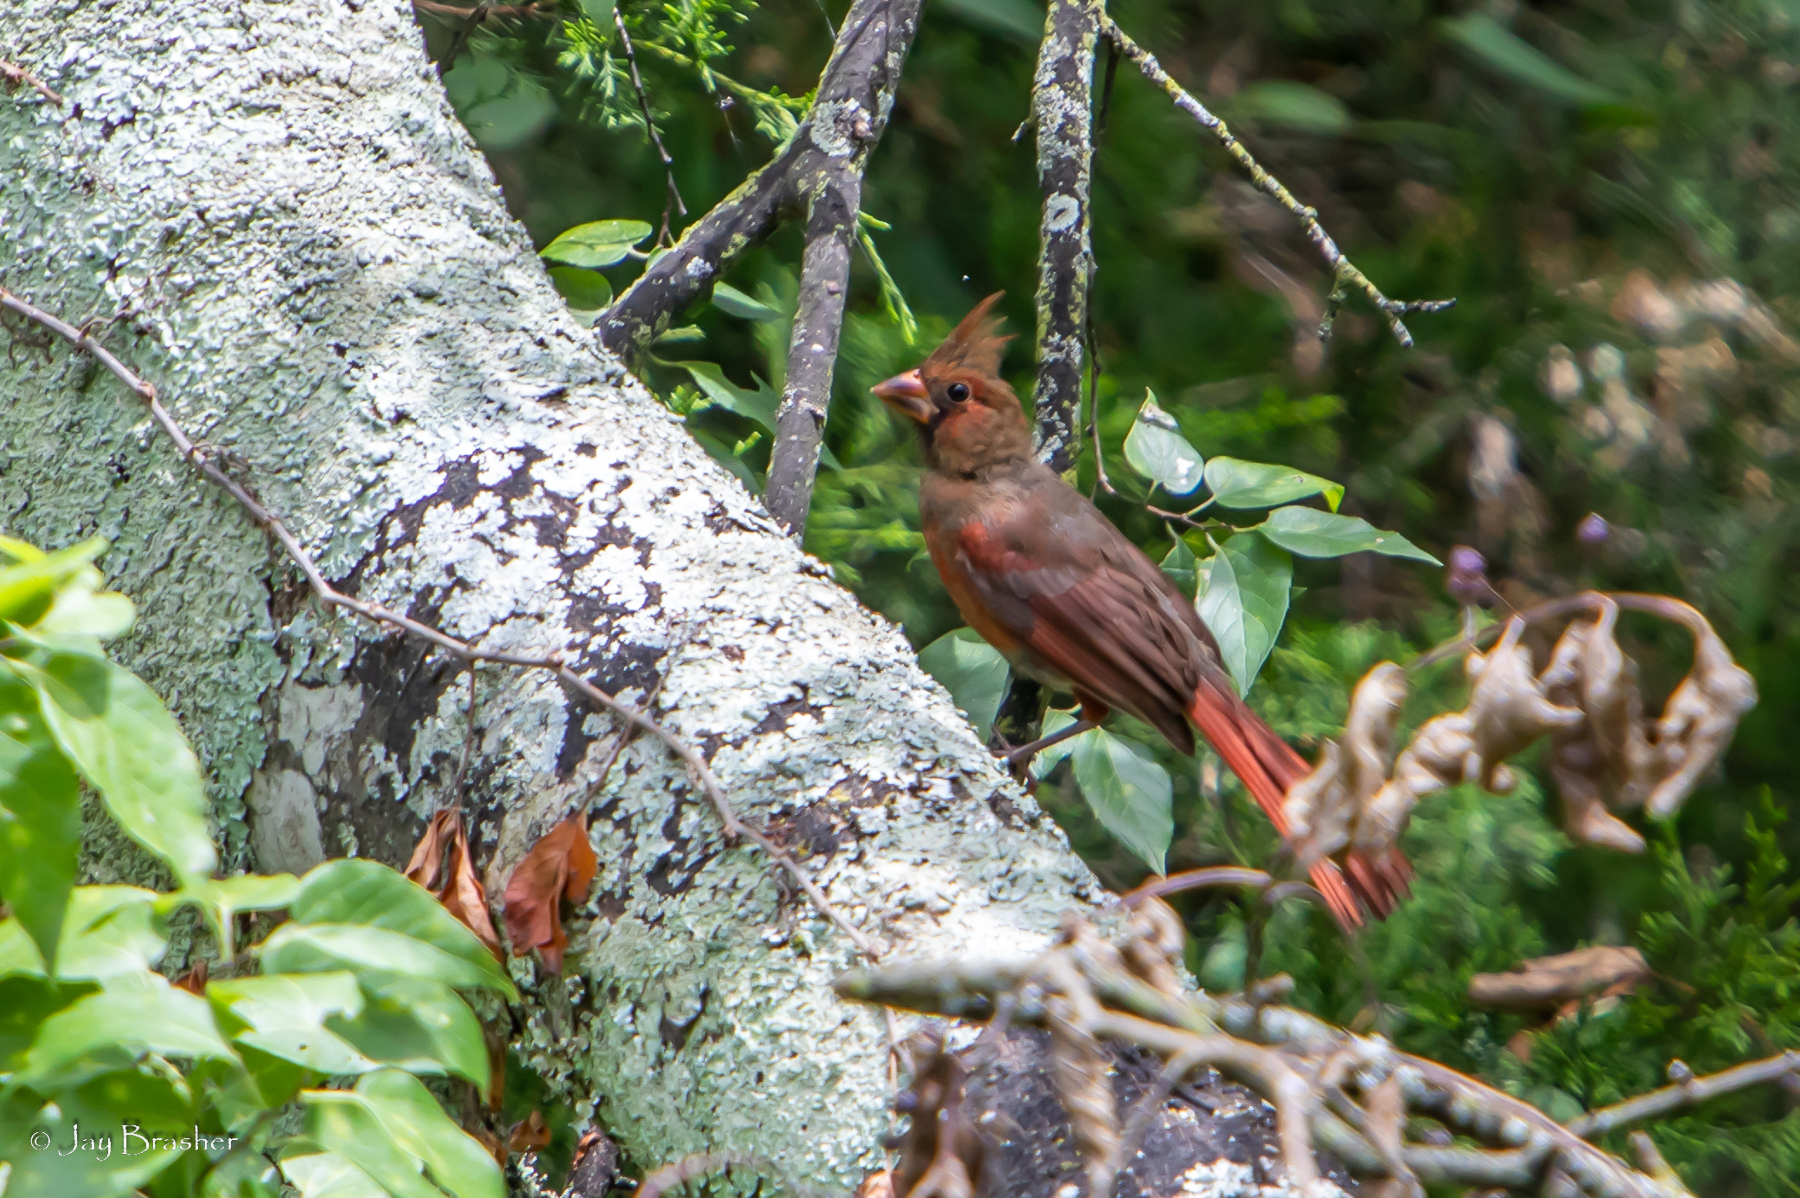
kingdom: Animalia
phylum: Chordata
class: Aves
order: Passeriformes
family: Cardinalidae
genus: Cardinalis
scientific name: Cardinalis cardinalis
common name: Northern cardinal
